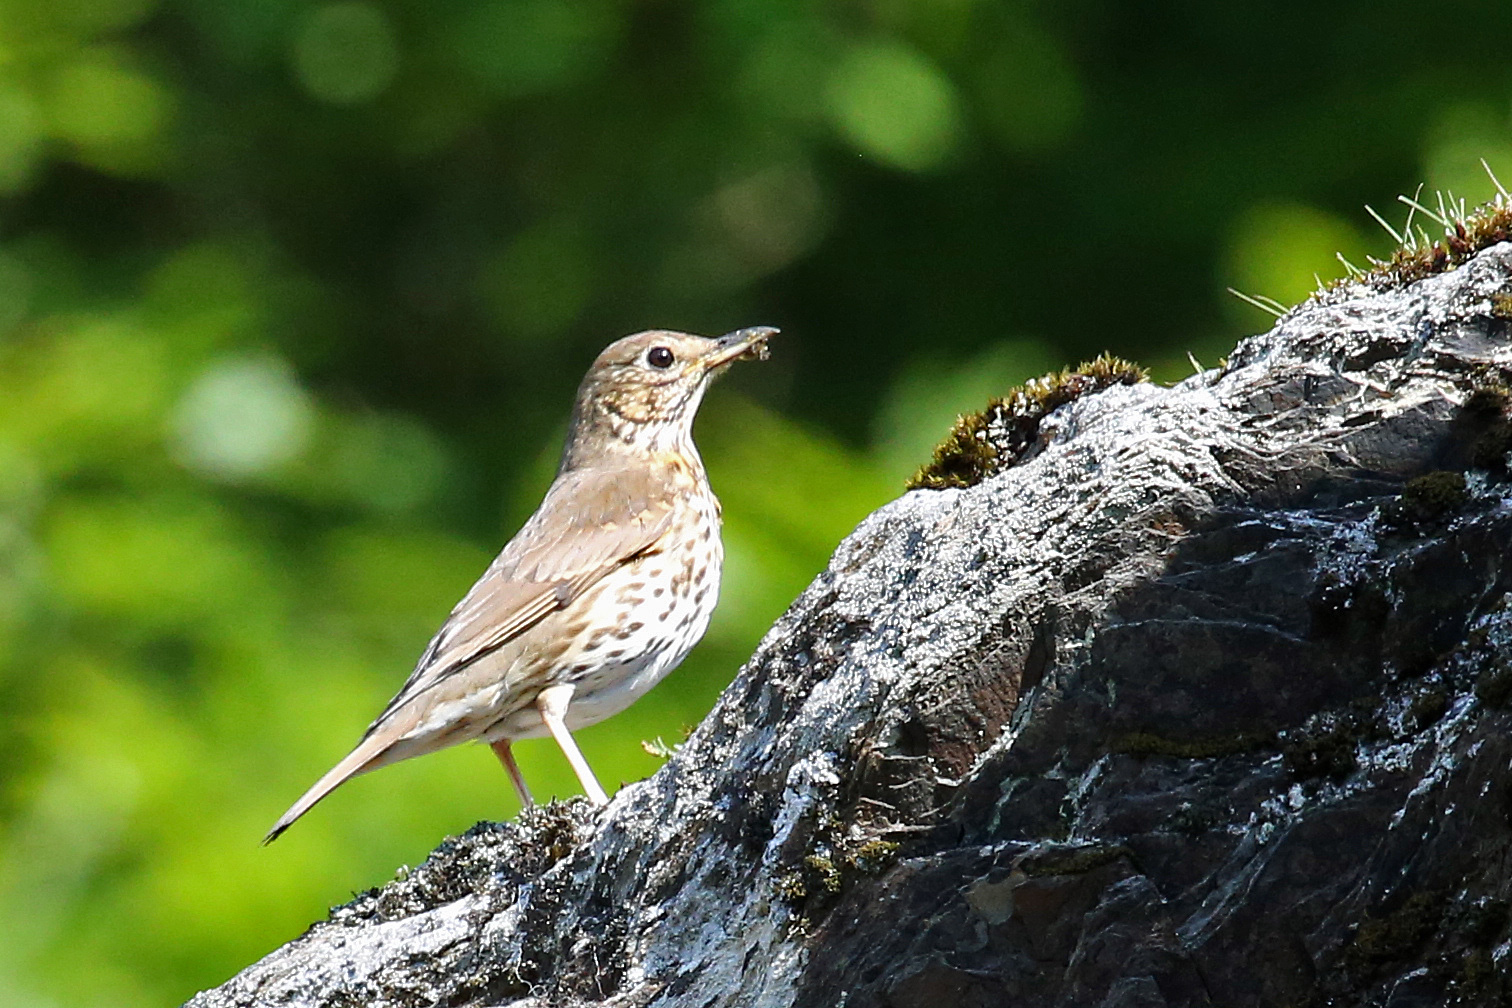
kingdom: Animalia
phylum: Chordata
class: Aves
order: Passeriformes
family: Turdidae
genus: Turdus
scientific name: Turdus philomelos
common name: Song thrush
